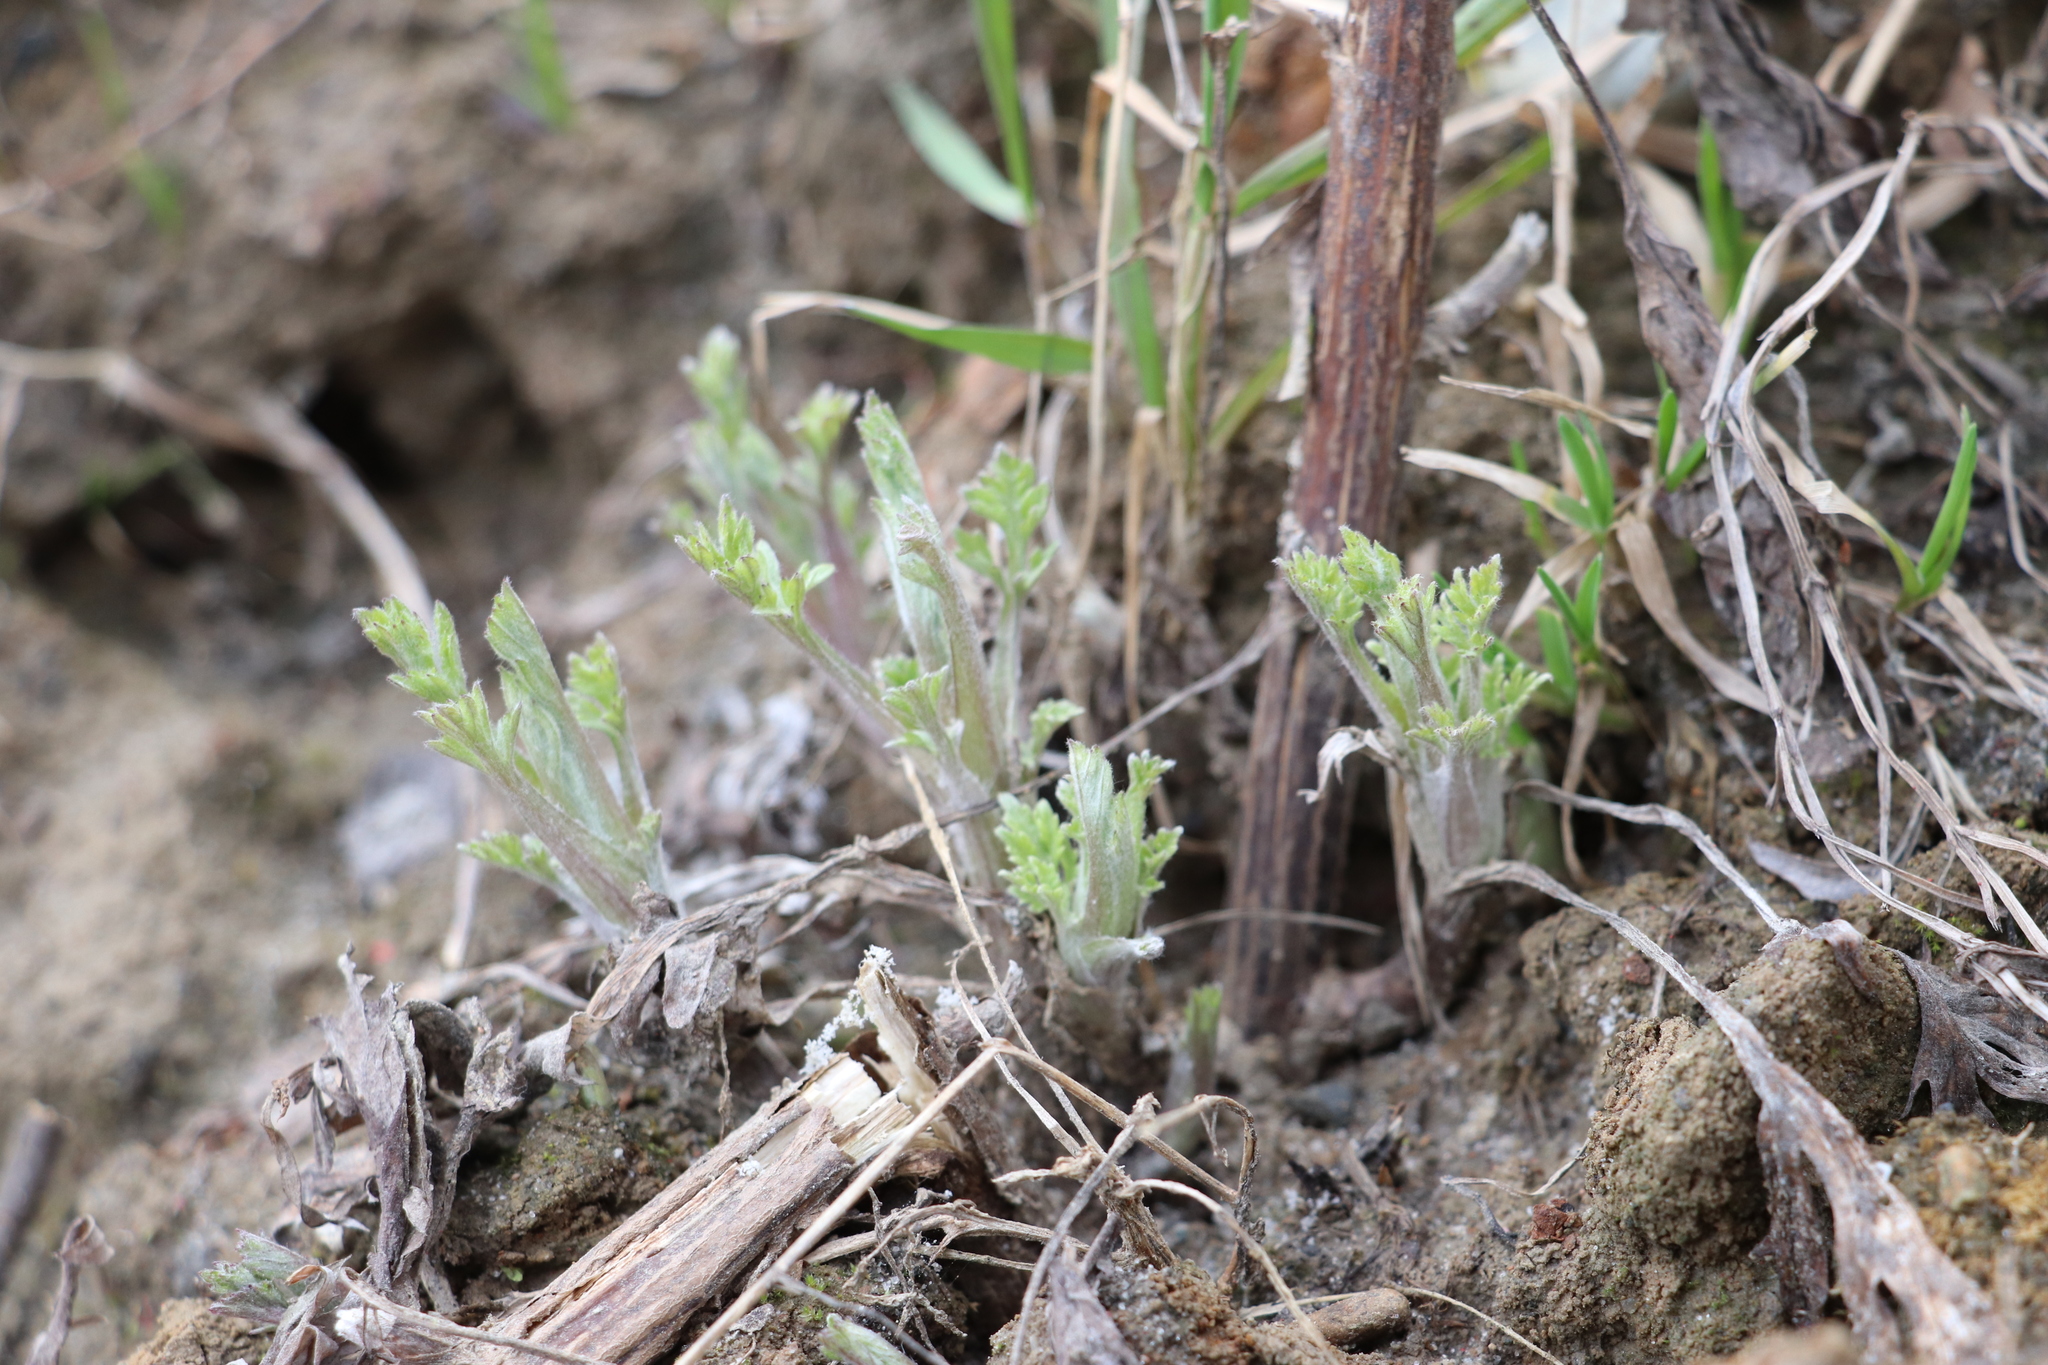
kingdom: Plantae
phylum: Tracheophyta
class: Magnoliopsida
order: Apiales
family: Apiaceae
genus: Angelica
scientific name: Angelica sylvestris
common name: Wild angelica
